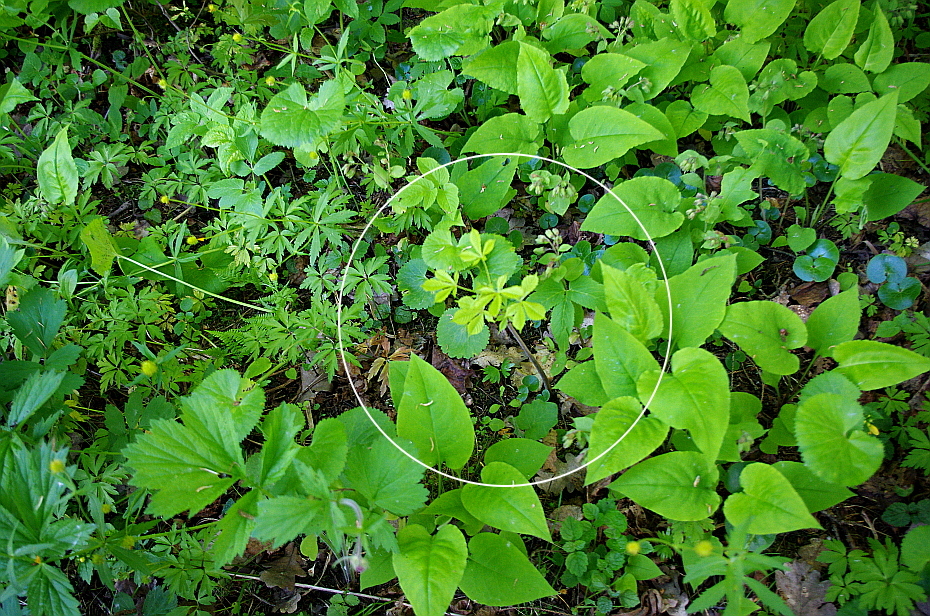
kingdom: Plantae
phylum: Tracheophyta
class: Magnoliopsida
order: Sapindales
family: Sapindaceae
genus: Aesculus
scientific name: Aesculus hippocastanum
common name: Horse-chestnut
